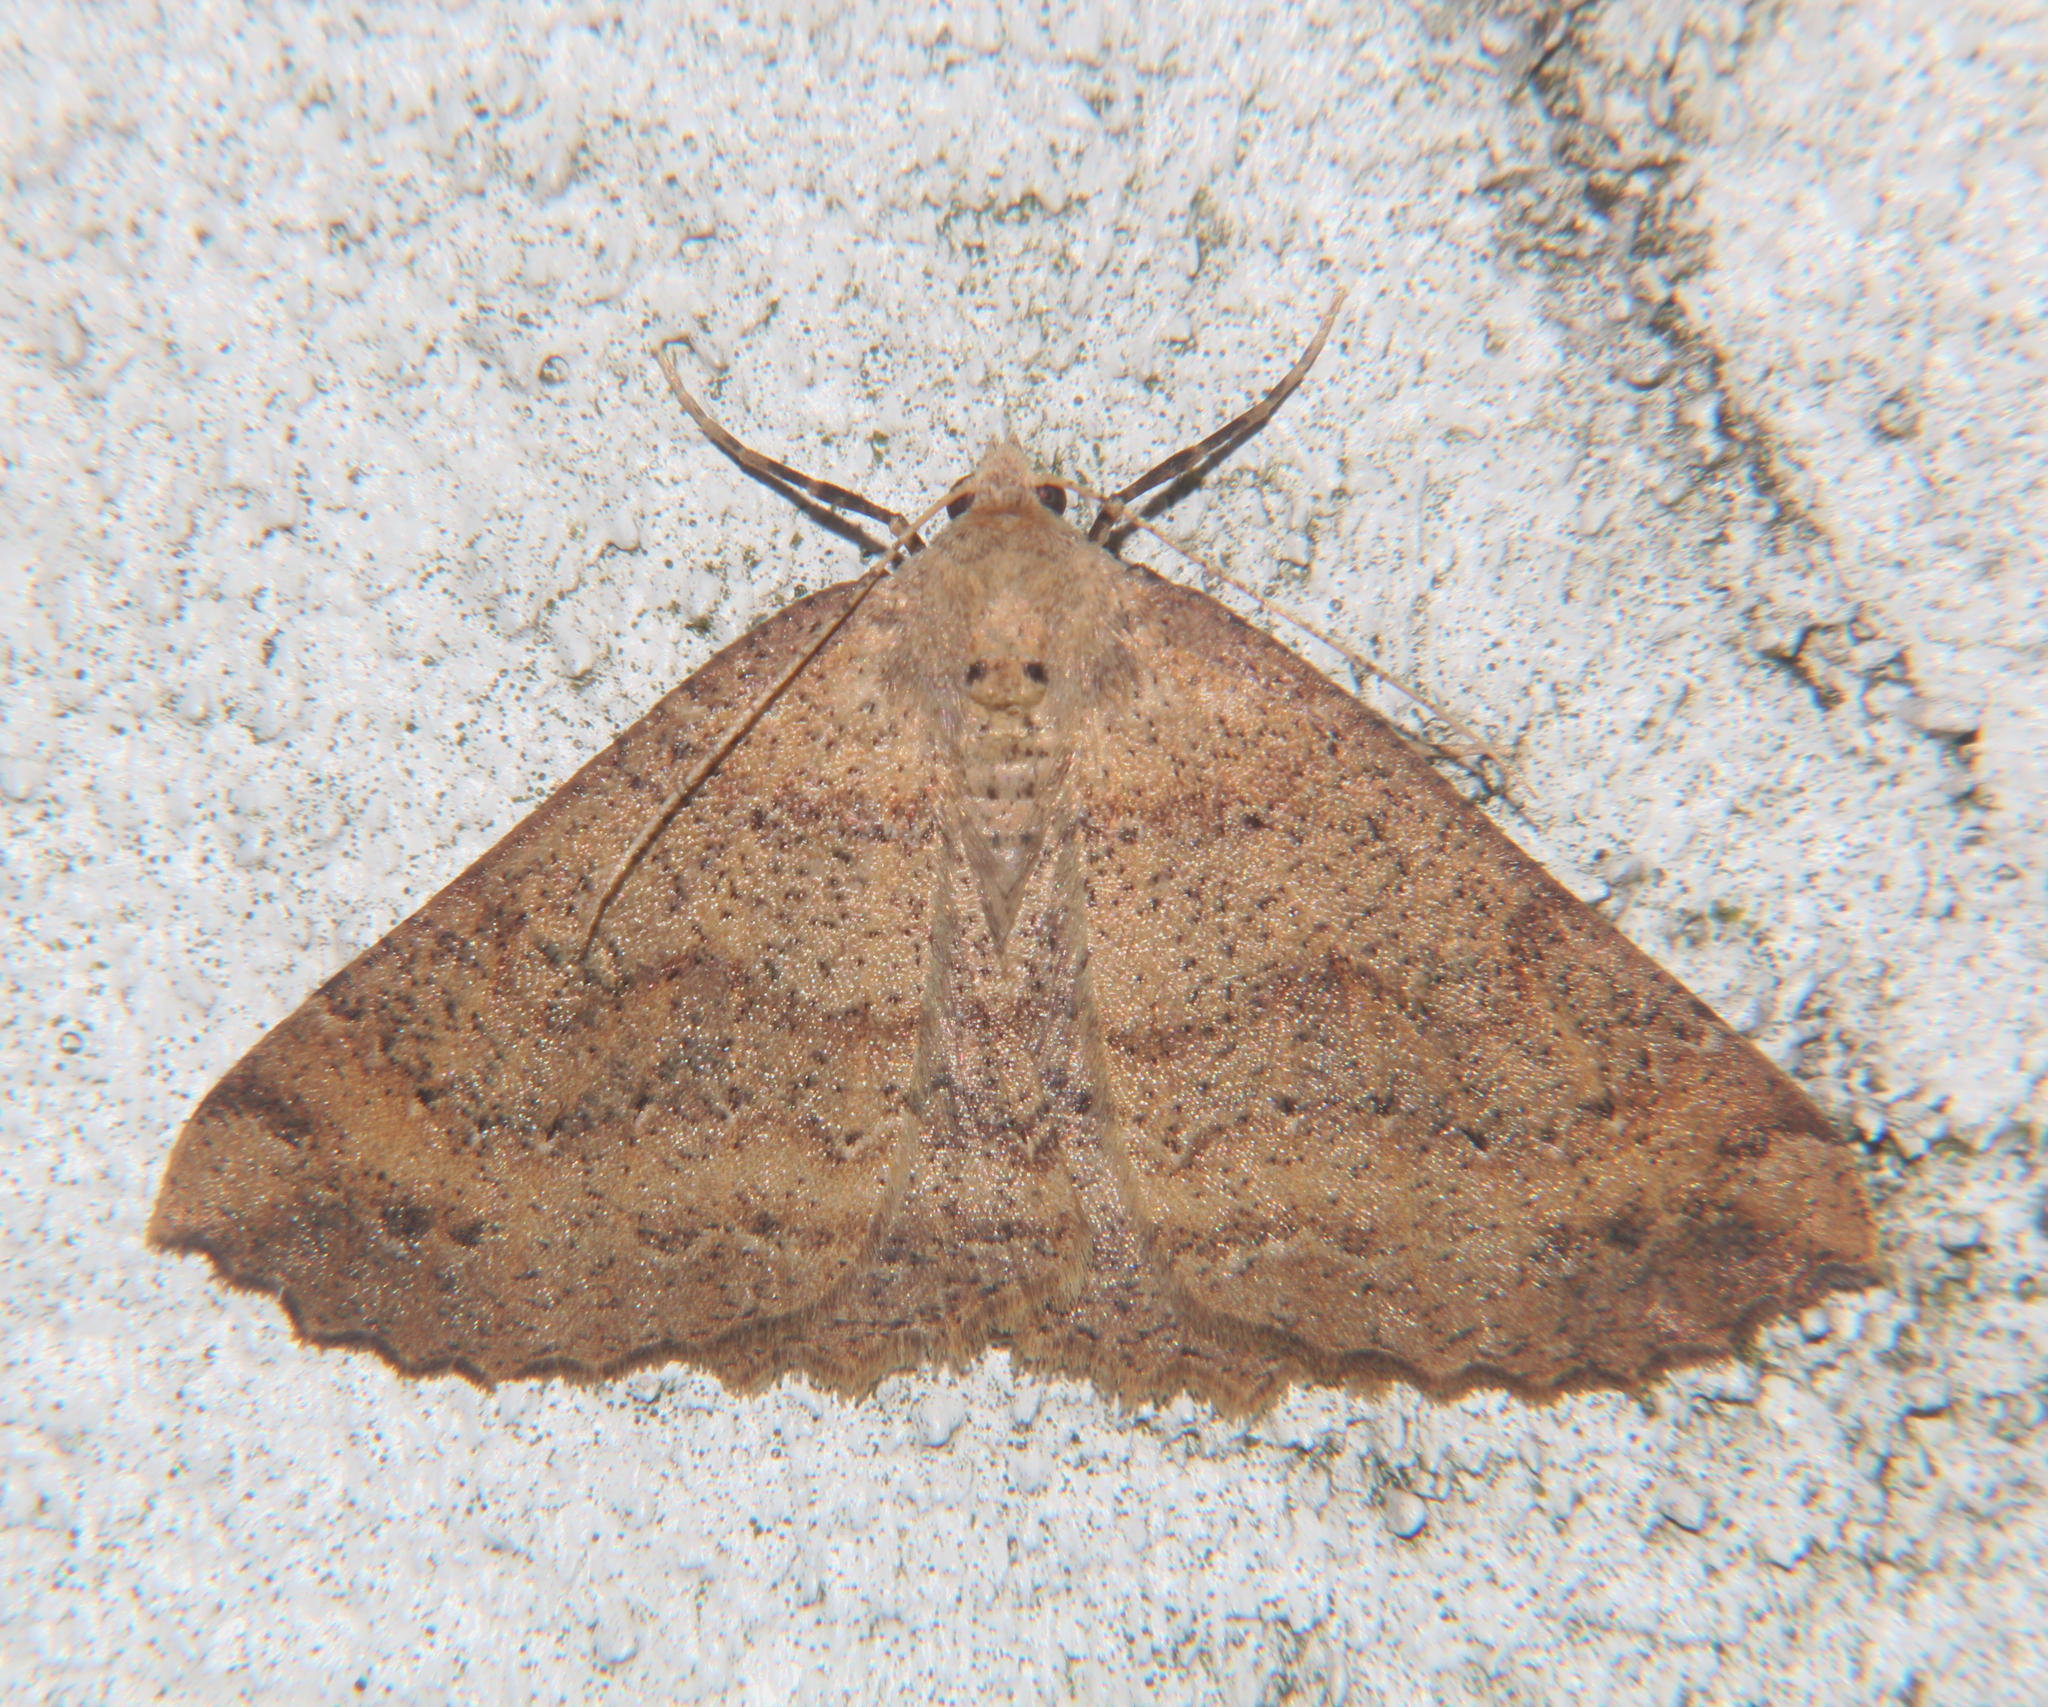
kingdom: Animalia
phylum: Arthropoda
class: Insecta
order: Lepidoptera
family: Geometridae
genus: Cleora
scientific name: Cleora scriptaria
